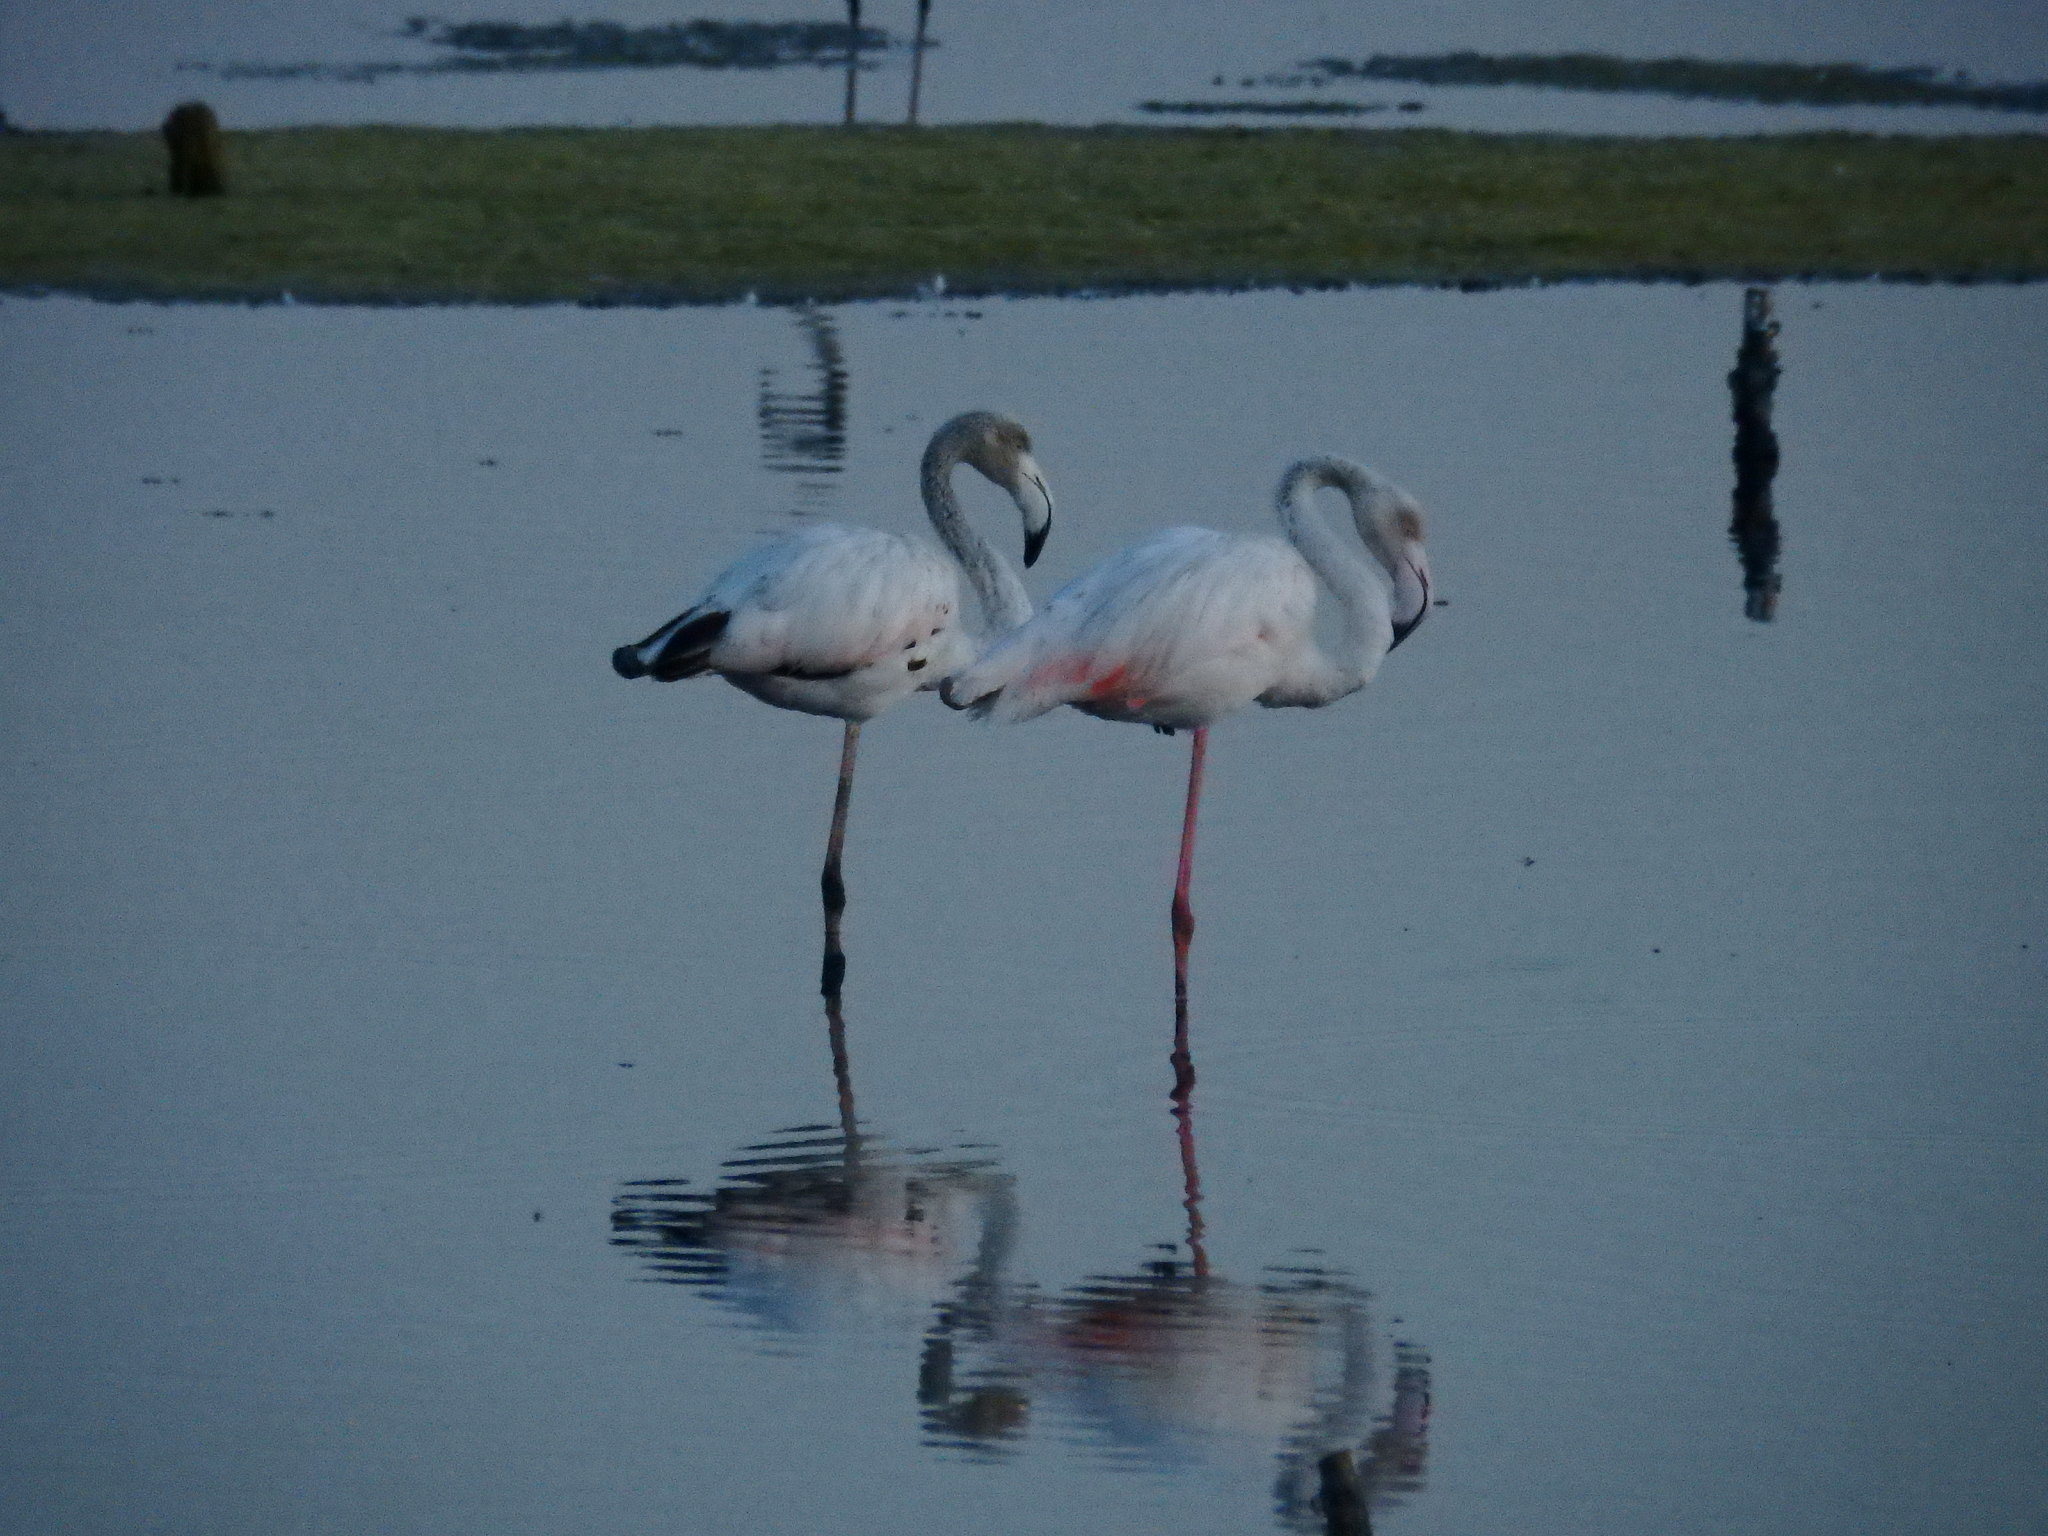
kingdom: Animalia
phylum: Chordata
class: Aves
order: Phoenicopteriformes
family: Phoenicopteridae
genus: Phoenicopterus
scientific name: Phoenicopterus roseus
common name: Greater flamingo
